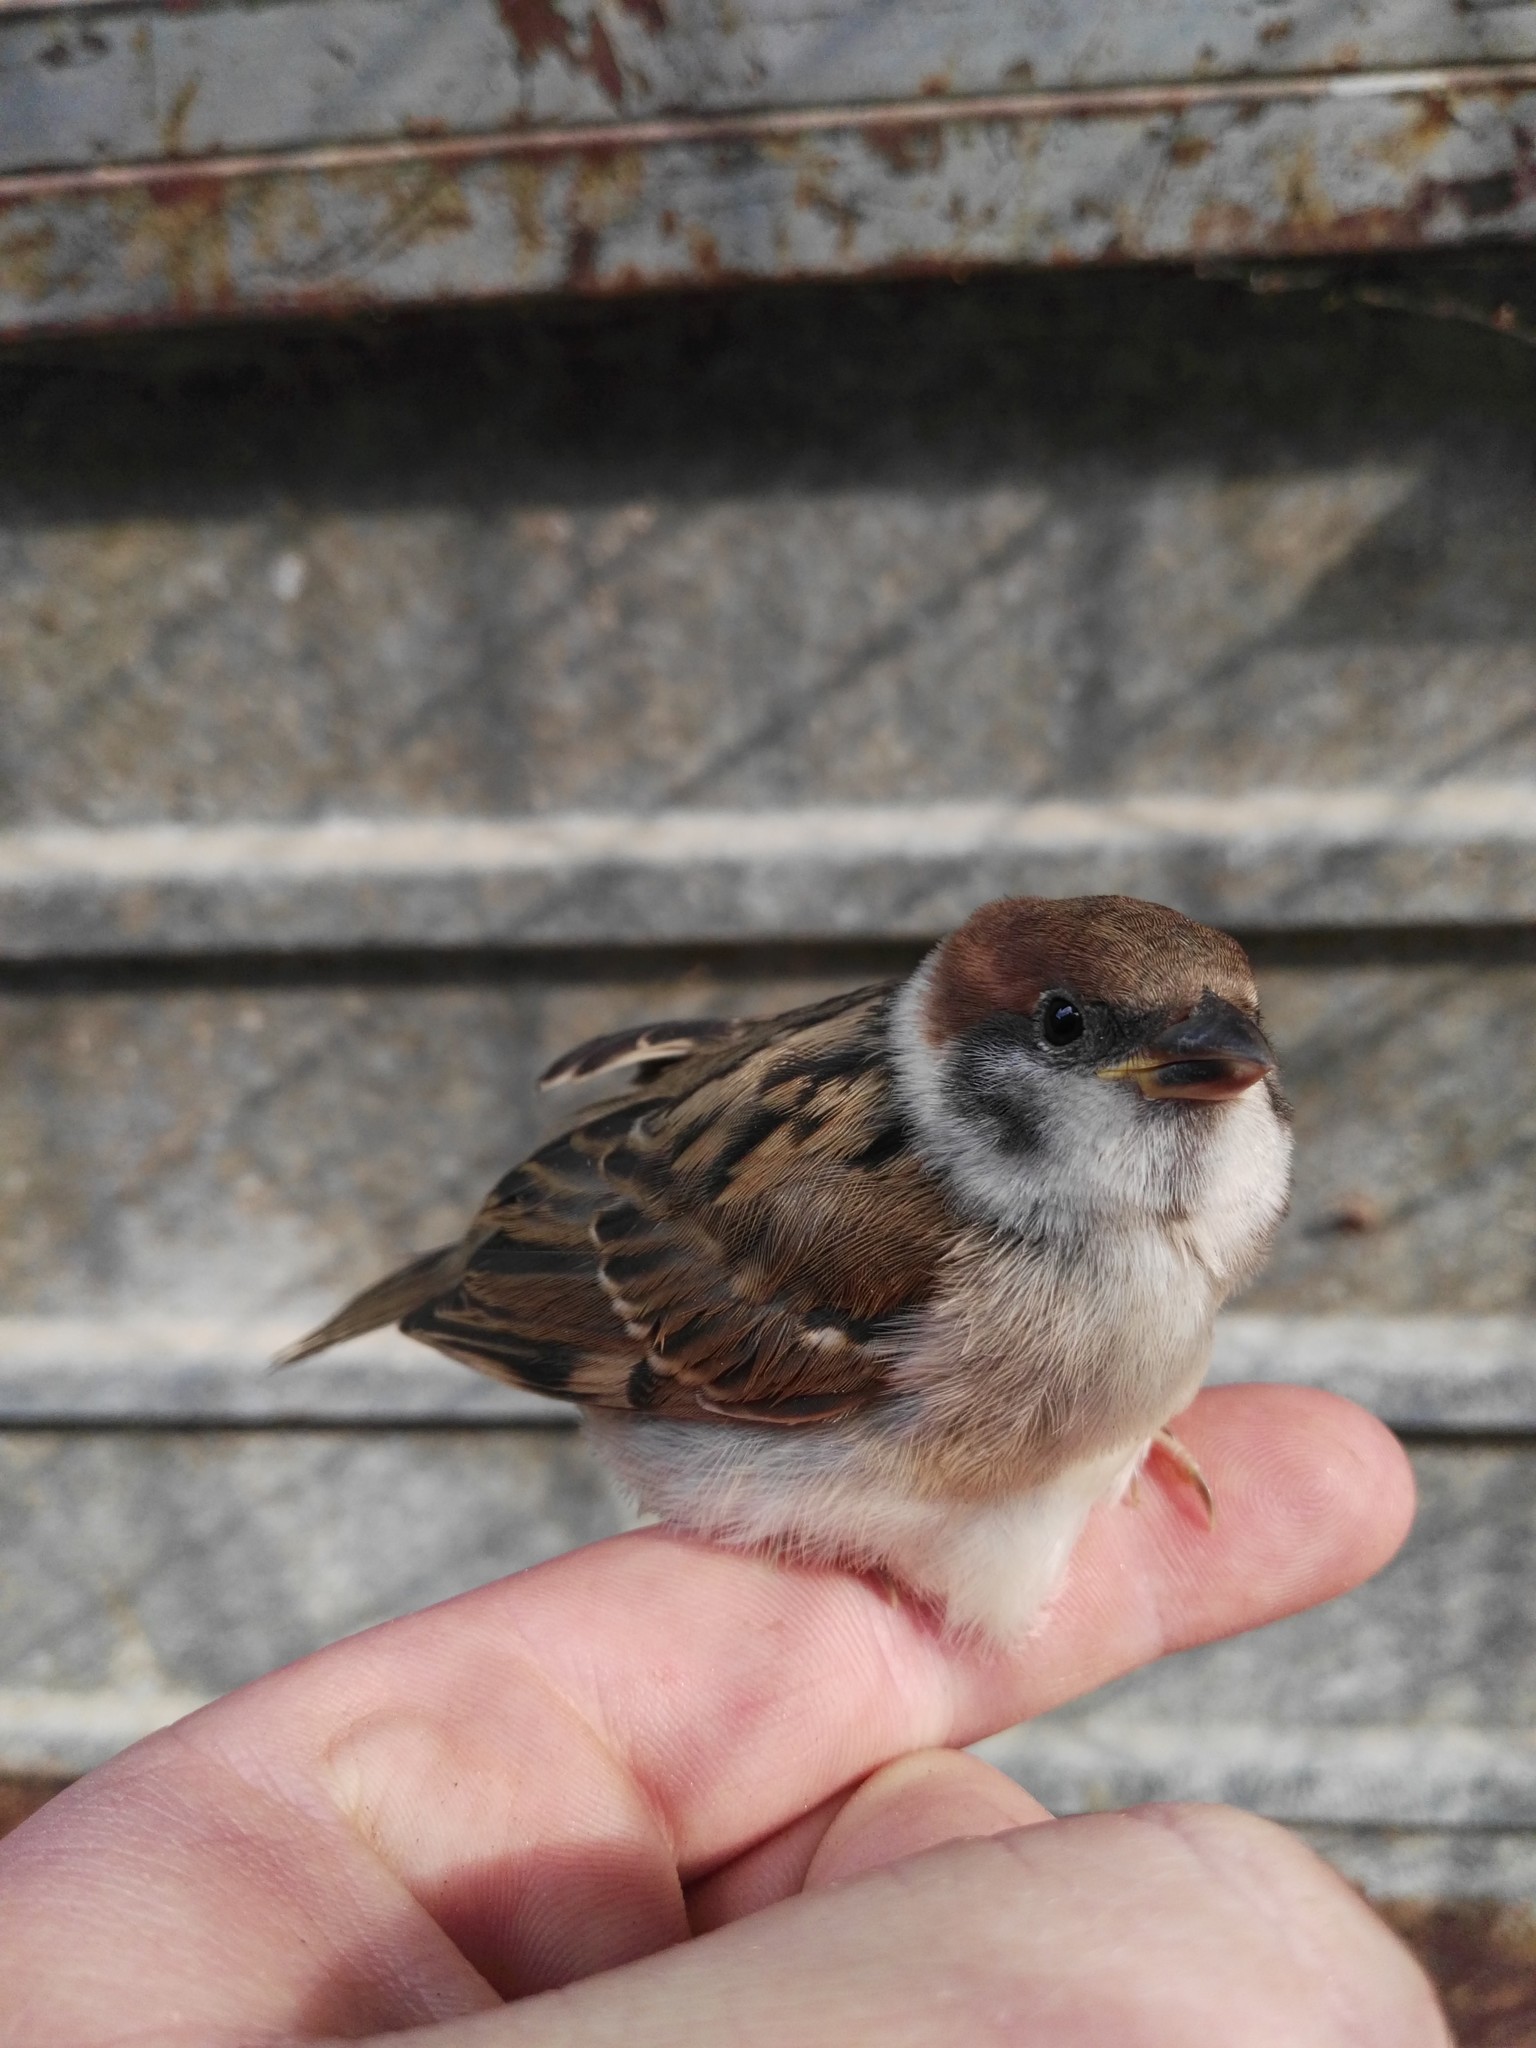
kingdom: Animalia
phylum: Chordata
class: Aves
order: Passeriformes
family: Passeridae
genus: Passer
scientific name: Passer montanus
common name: Eurasian tree sparrow
